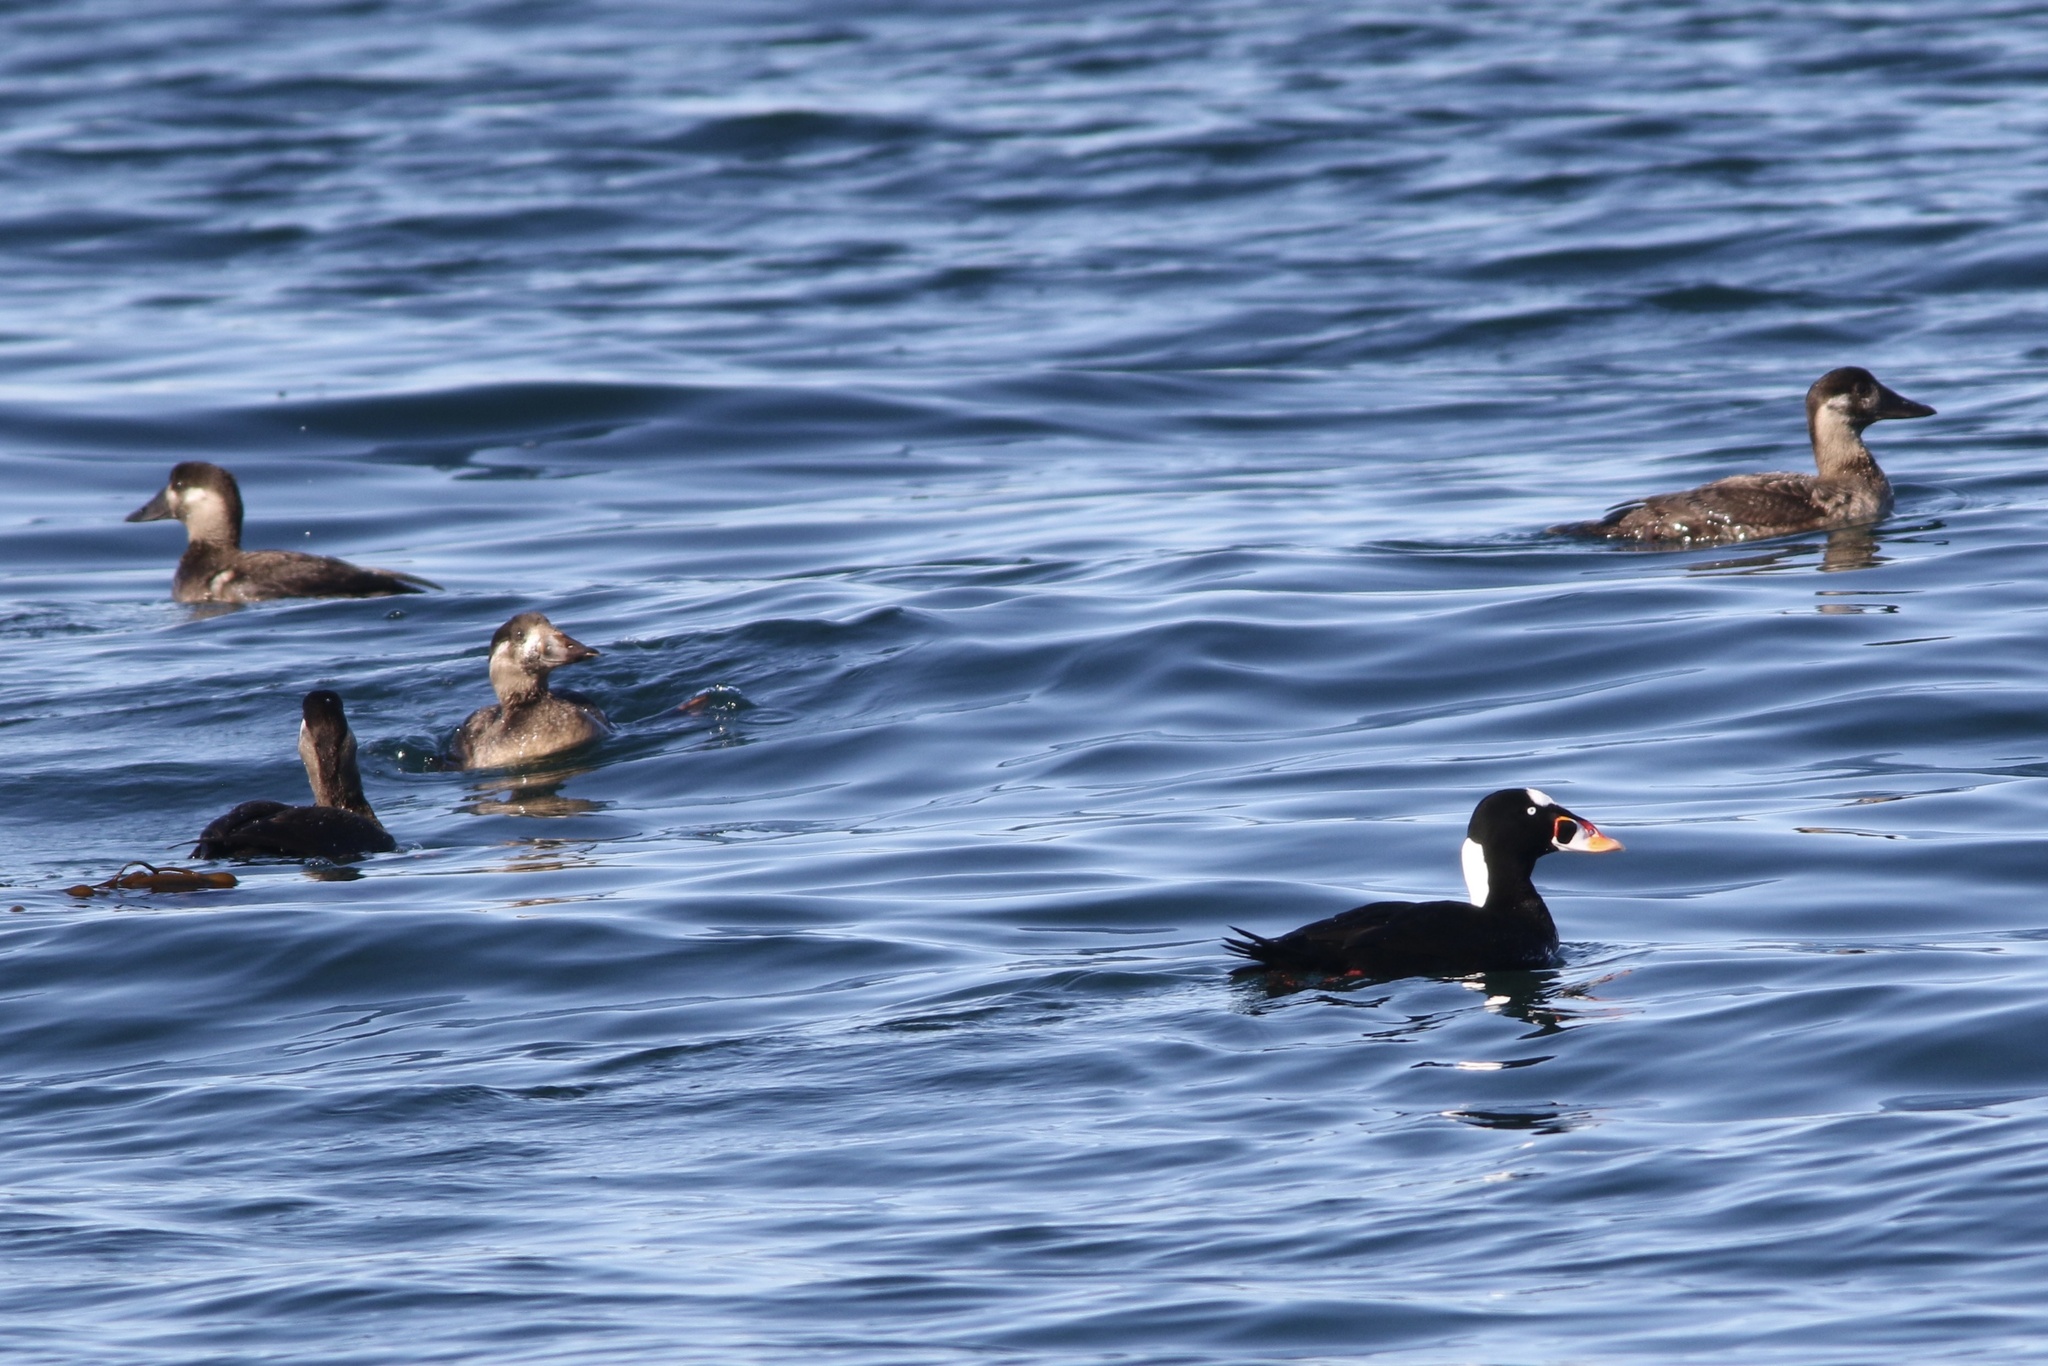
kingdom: Animalia
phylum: Chordata
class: Aves
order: Anseriformes
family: Anatidae
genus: Melanitta
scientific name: Melanitta perspicillata
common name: Surf scoter
